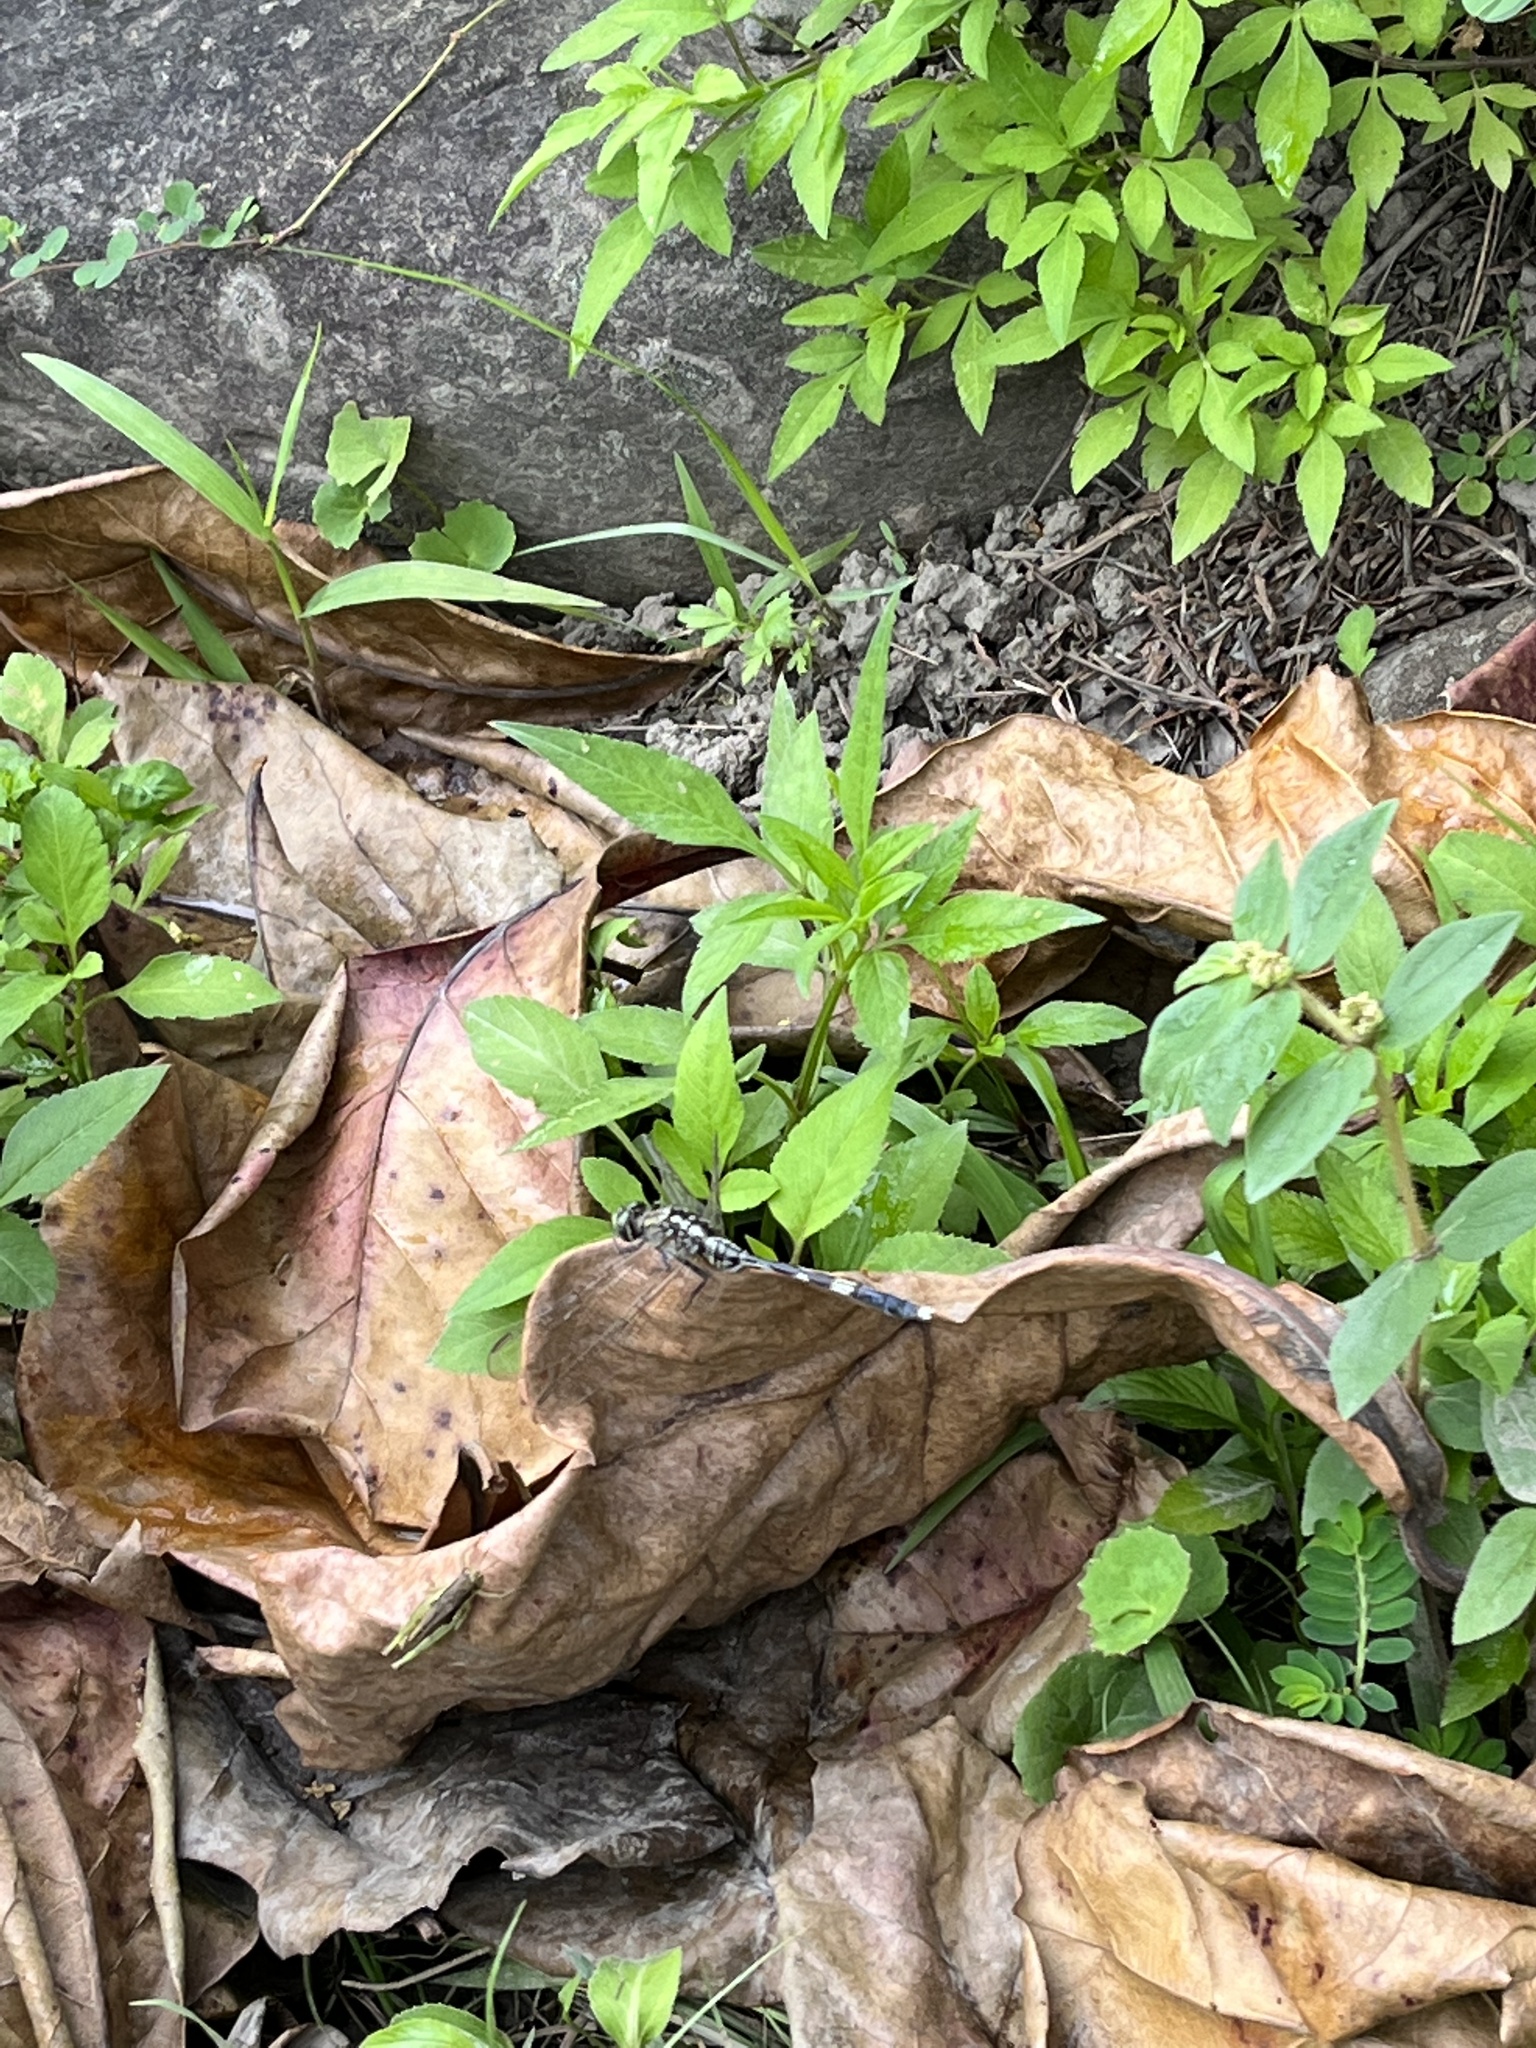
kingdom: Animalia
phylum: Arthropoda
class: Insecta
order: Odonata
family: Libellulidae
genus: Orthetrum
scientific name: Orthetrum sabina
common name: Slender skimmer
